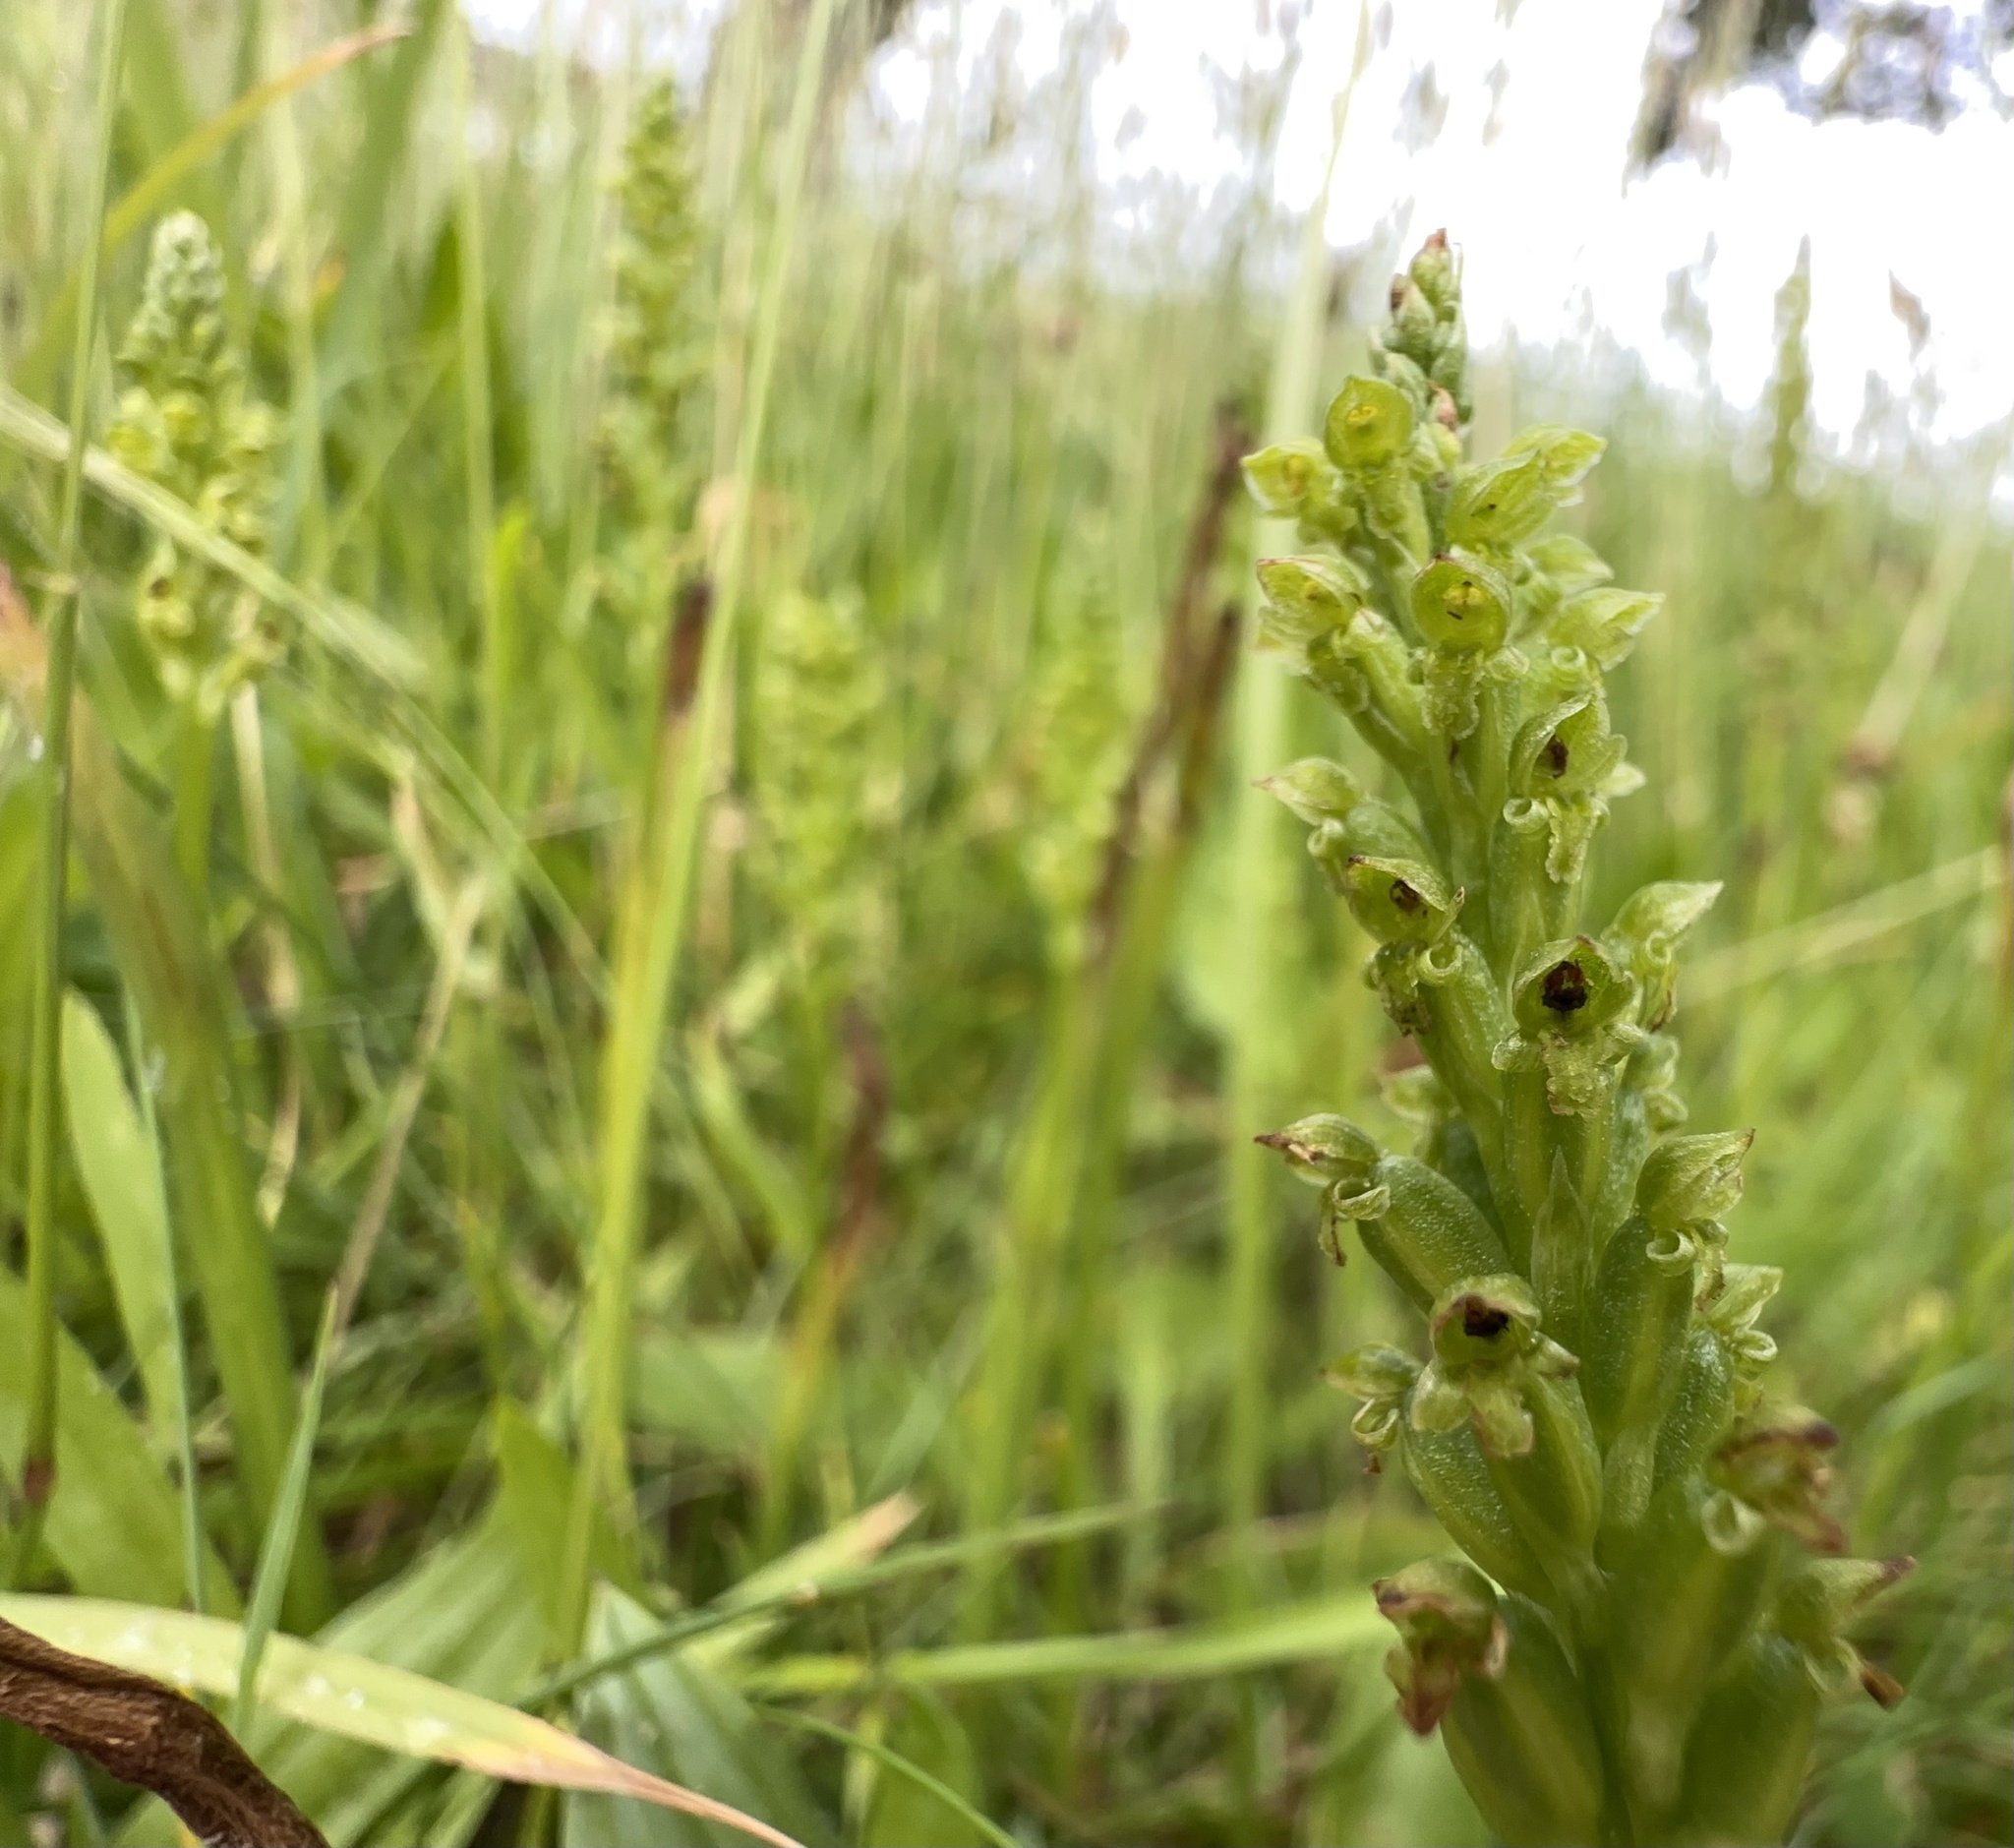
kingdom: Plantae
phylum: Tracheophyta
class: Liliopsida
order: Asparagales
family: Orchidaceae
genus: Microtis
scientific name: Microtis unifolia
